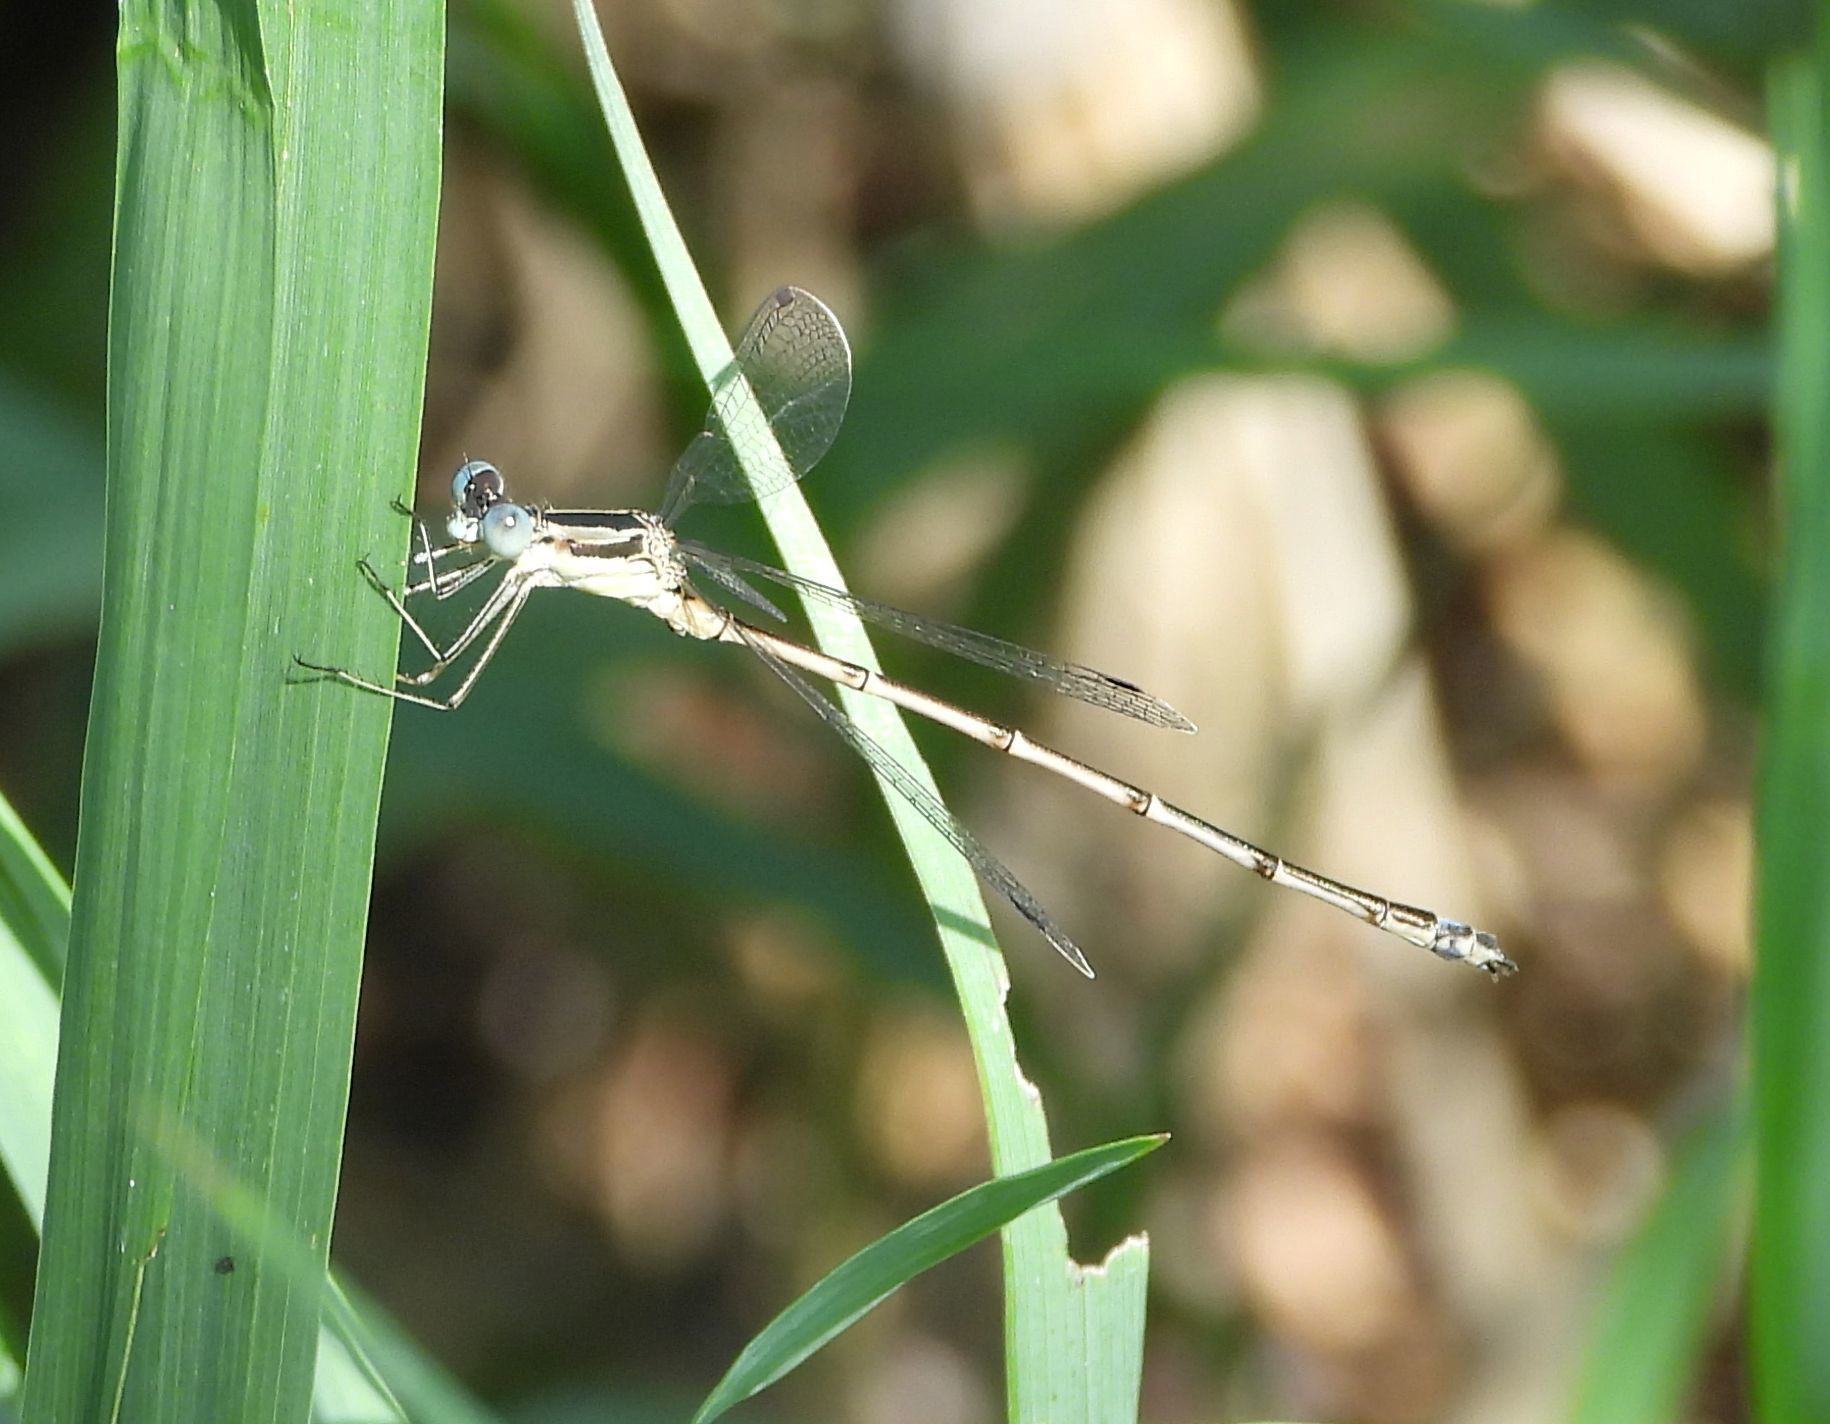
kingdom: Animalia
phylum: Arthropoda
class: Insecta
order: Odonata
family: Lestidae
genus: Lestes
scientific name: Lestes rectangularis
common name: Slender spreadwing
